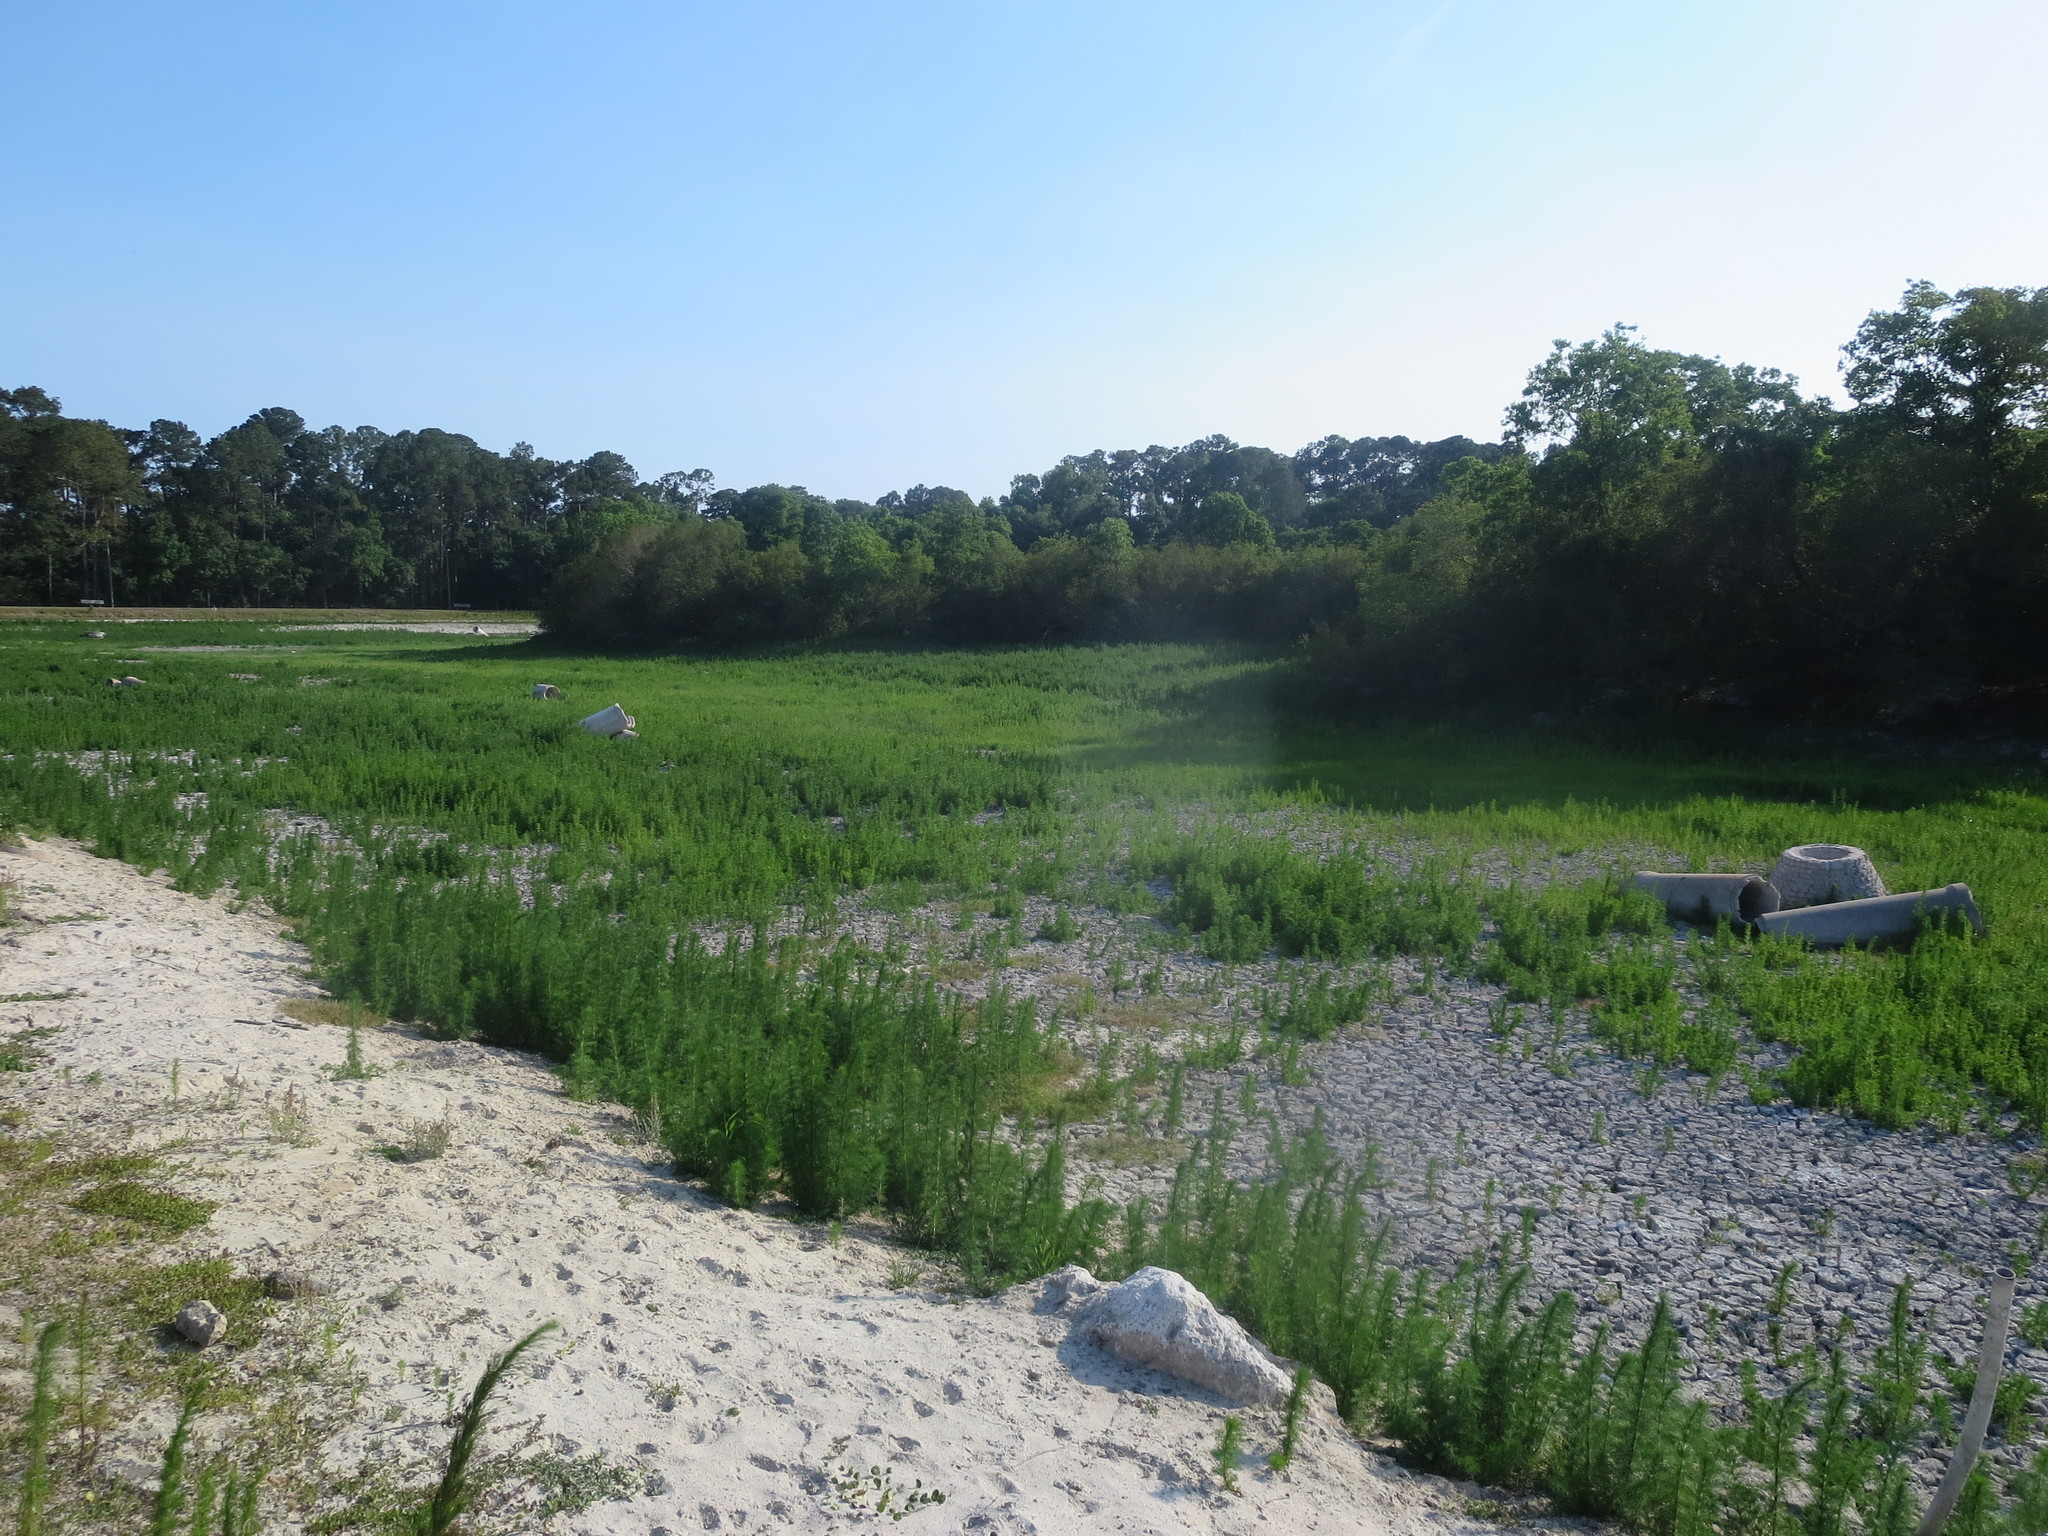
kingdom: Plantae
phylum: Tracheophyta
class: Magnoliopsida
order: Asterales
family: Asteraceae
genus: Eupatorium
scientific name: Eupatorium capillifolium
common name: Dog-fennel
